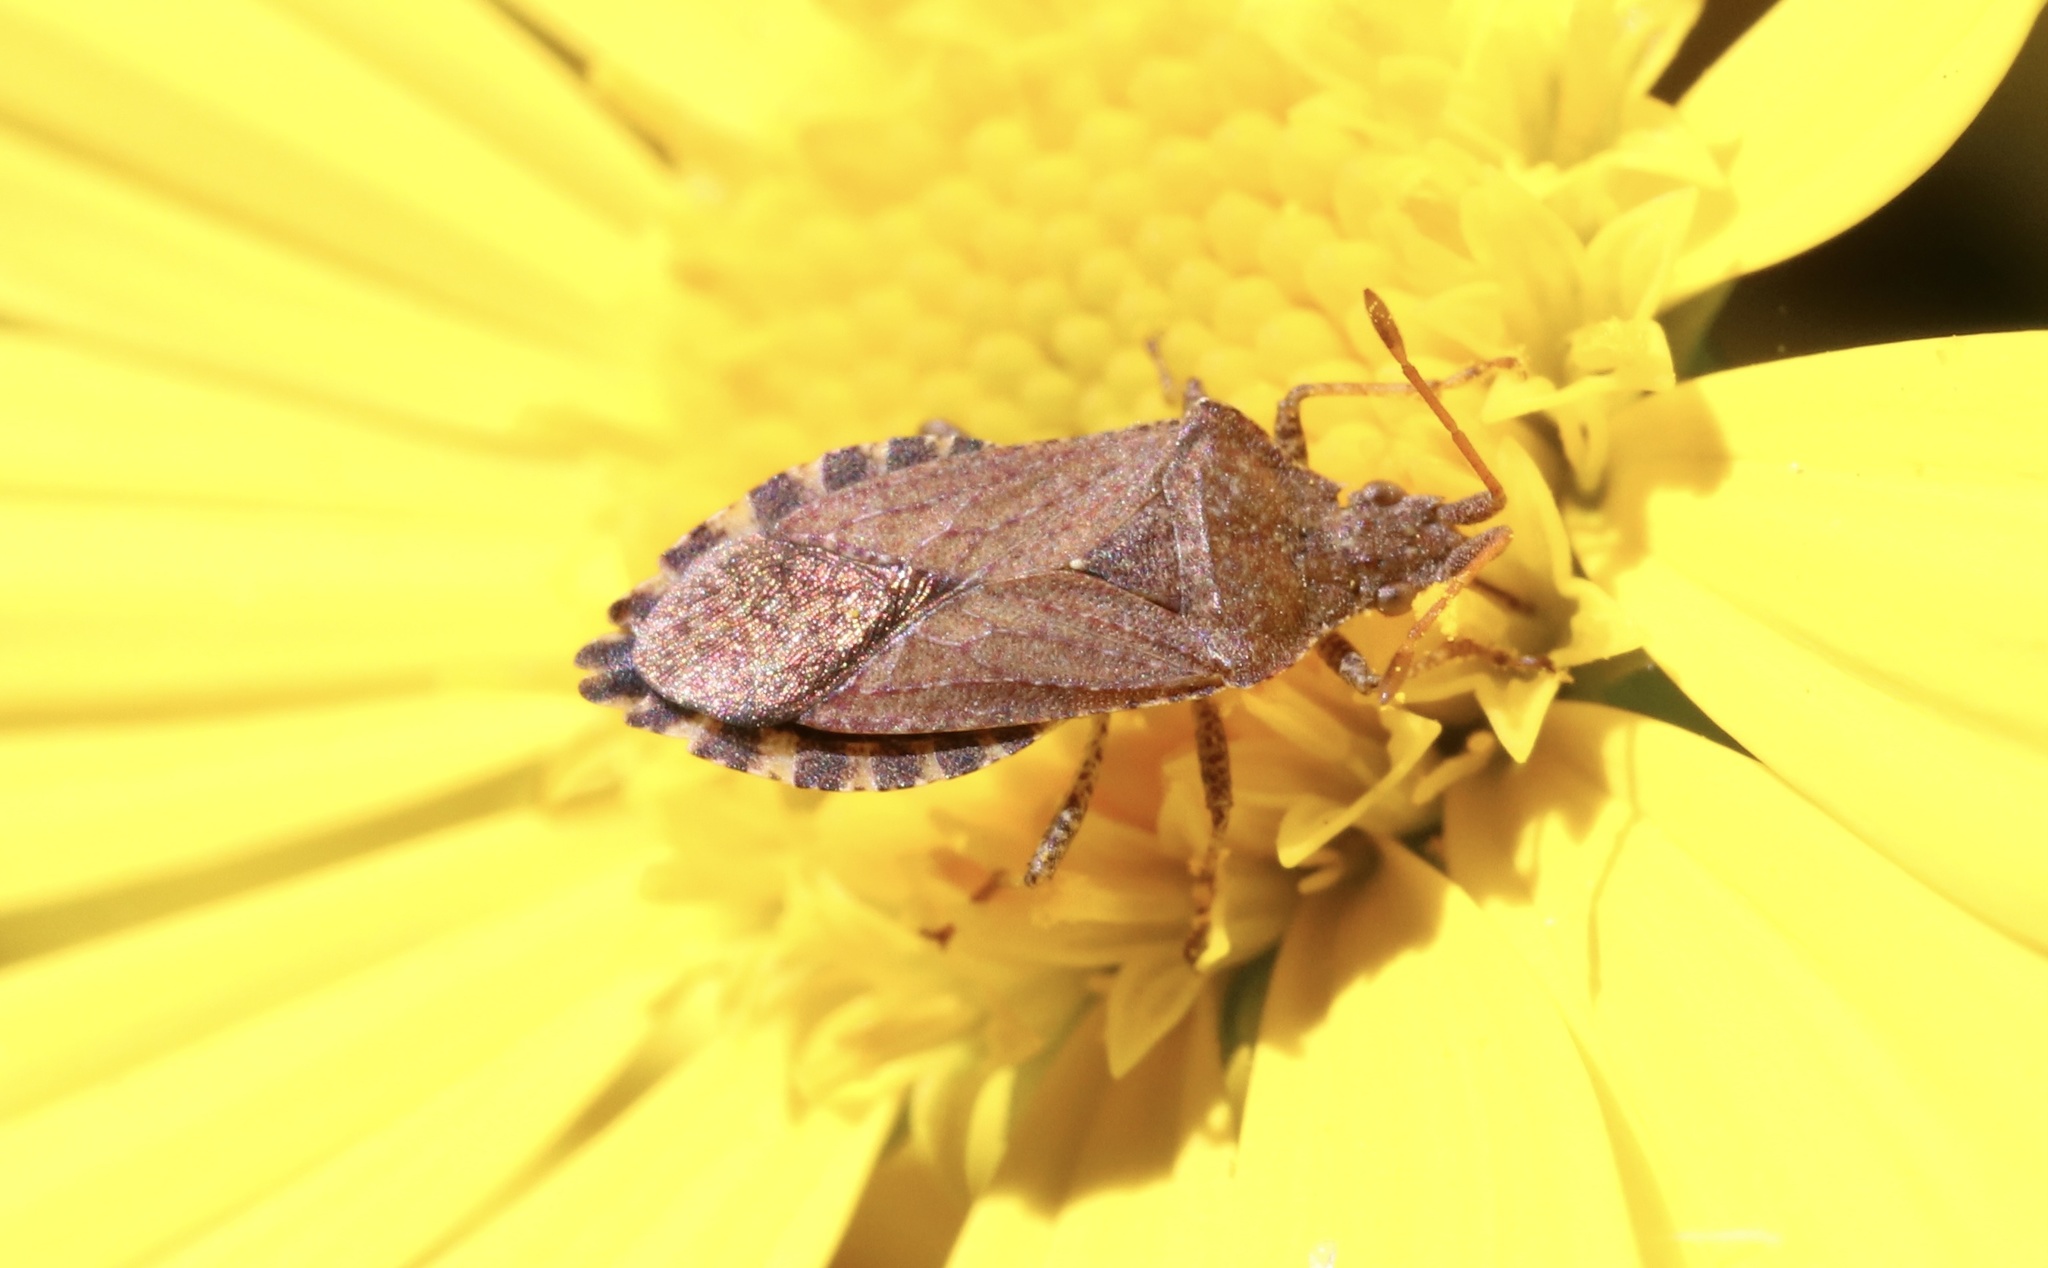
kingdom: Animalia
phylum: Arthropoda
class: Insecta
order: Hemiptera
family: Coreidae
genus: Althos
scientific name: Althos distinctus
